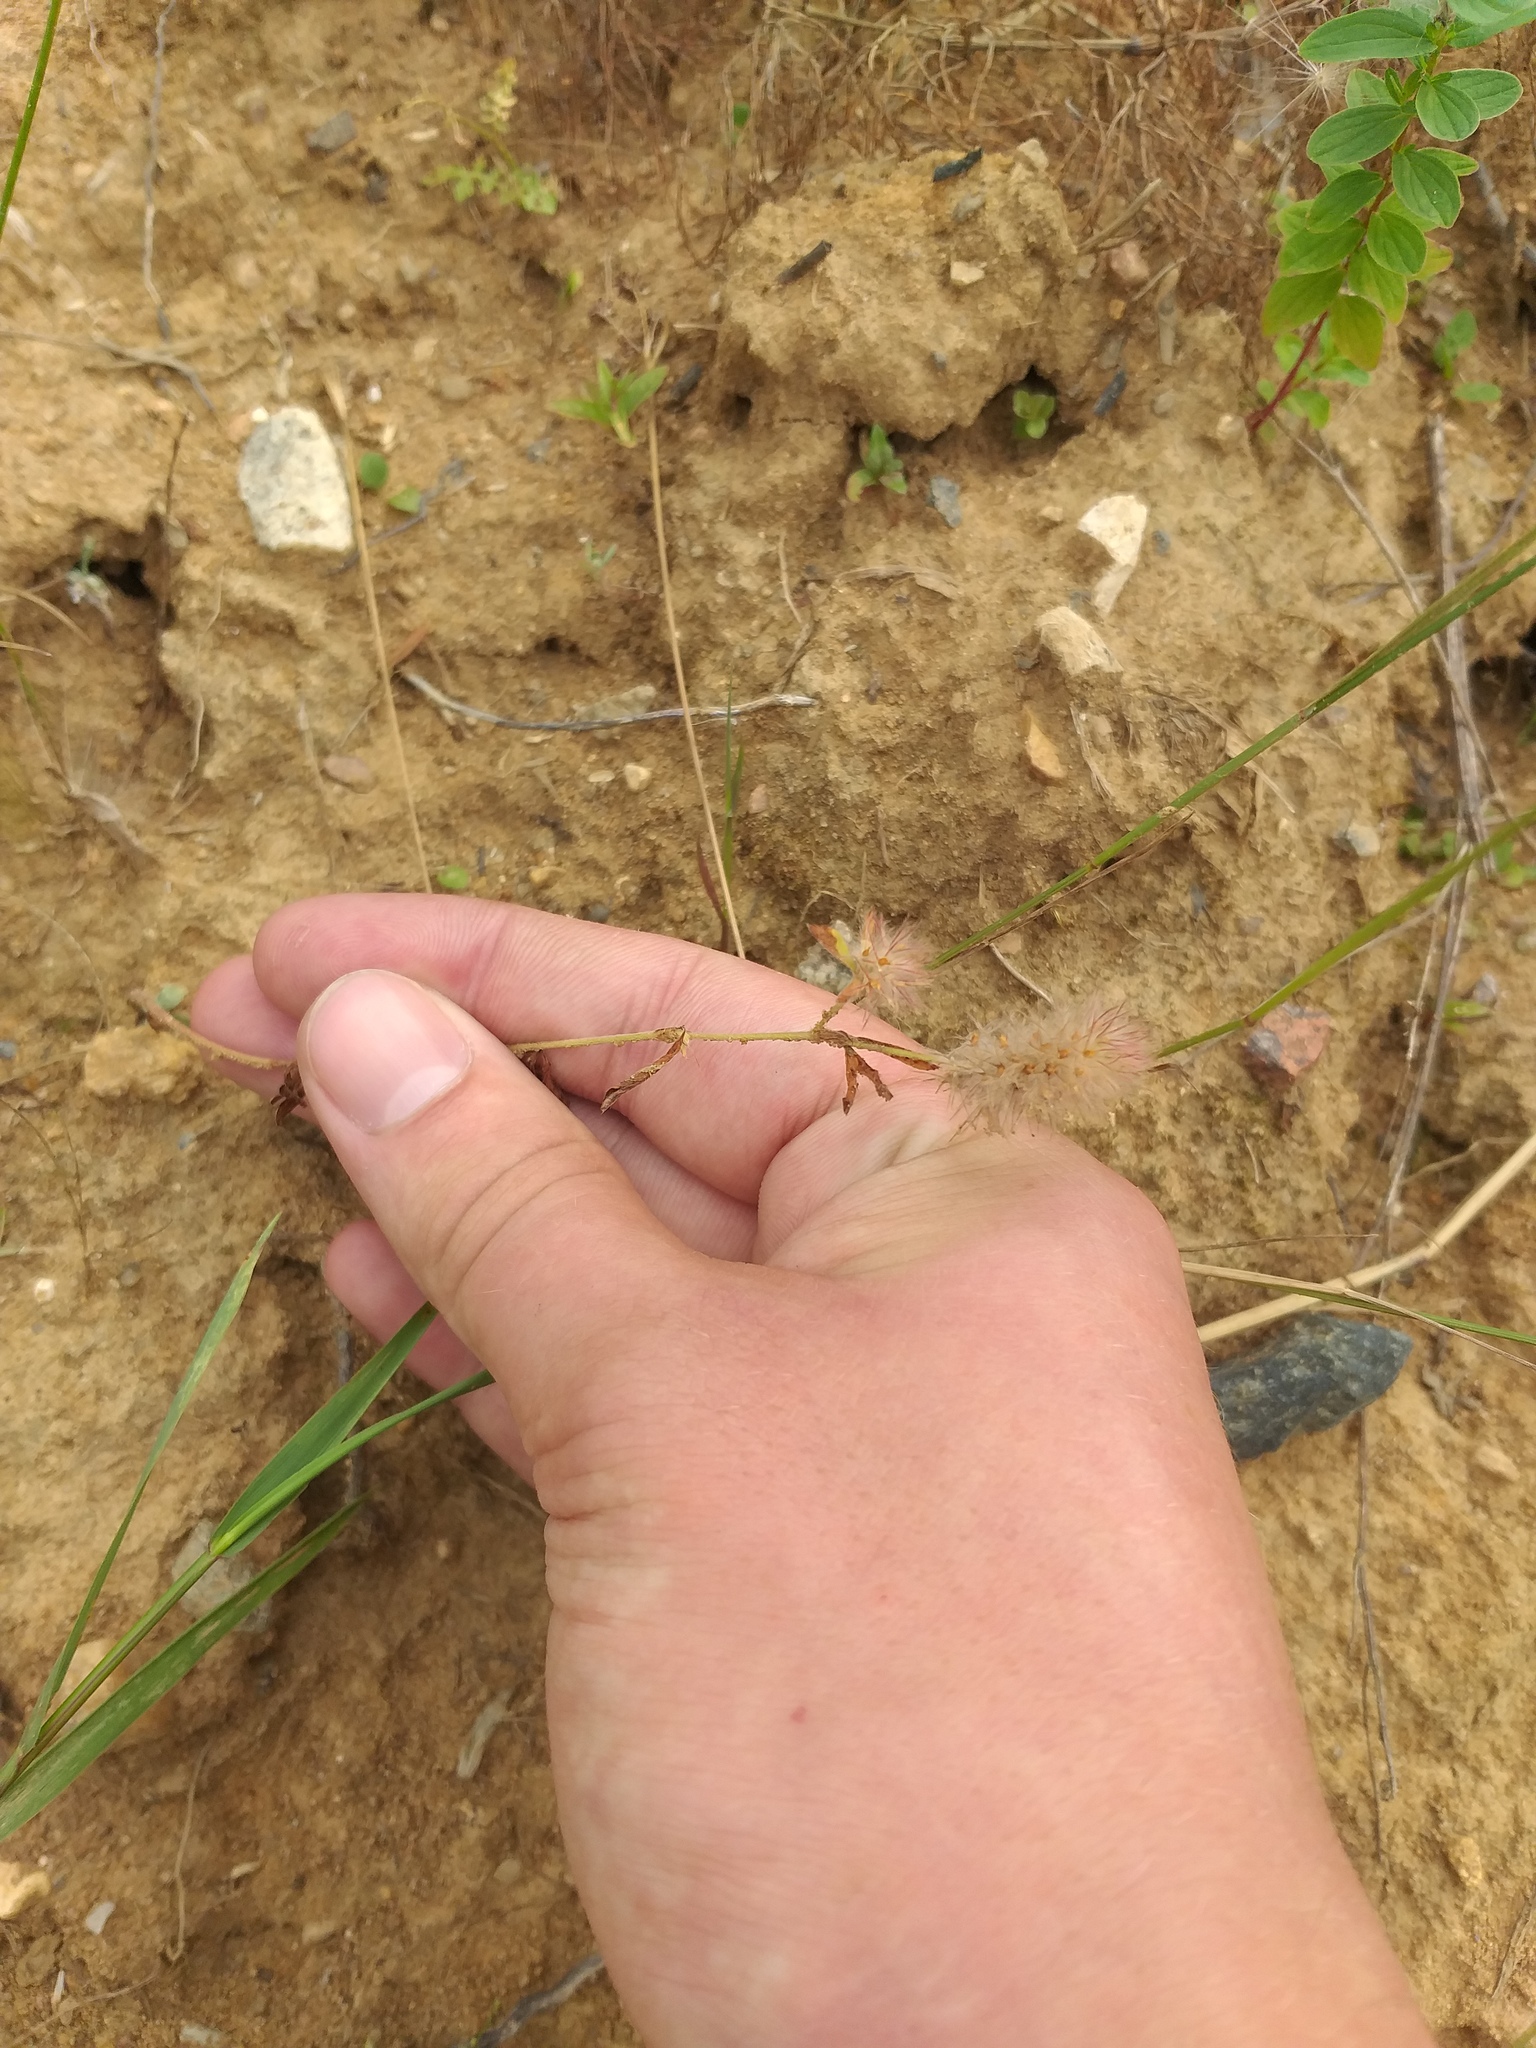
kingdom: Plantae
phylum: Tracheophyta
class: Magnoliopsida
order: Fabales
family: Fabaceae
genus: Trifolium
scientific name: Trifolium arvense
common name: Hare's-foot clover
